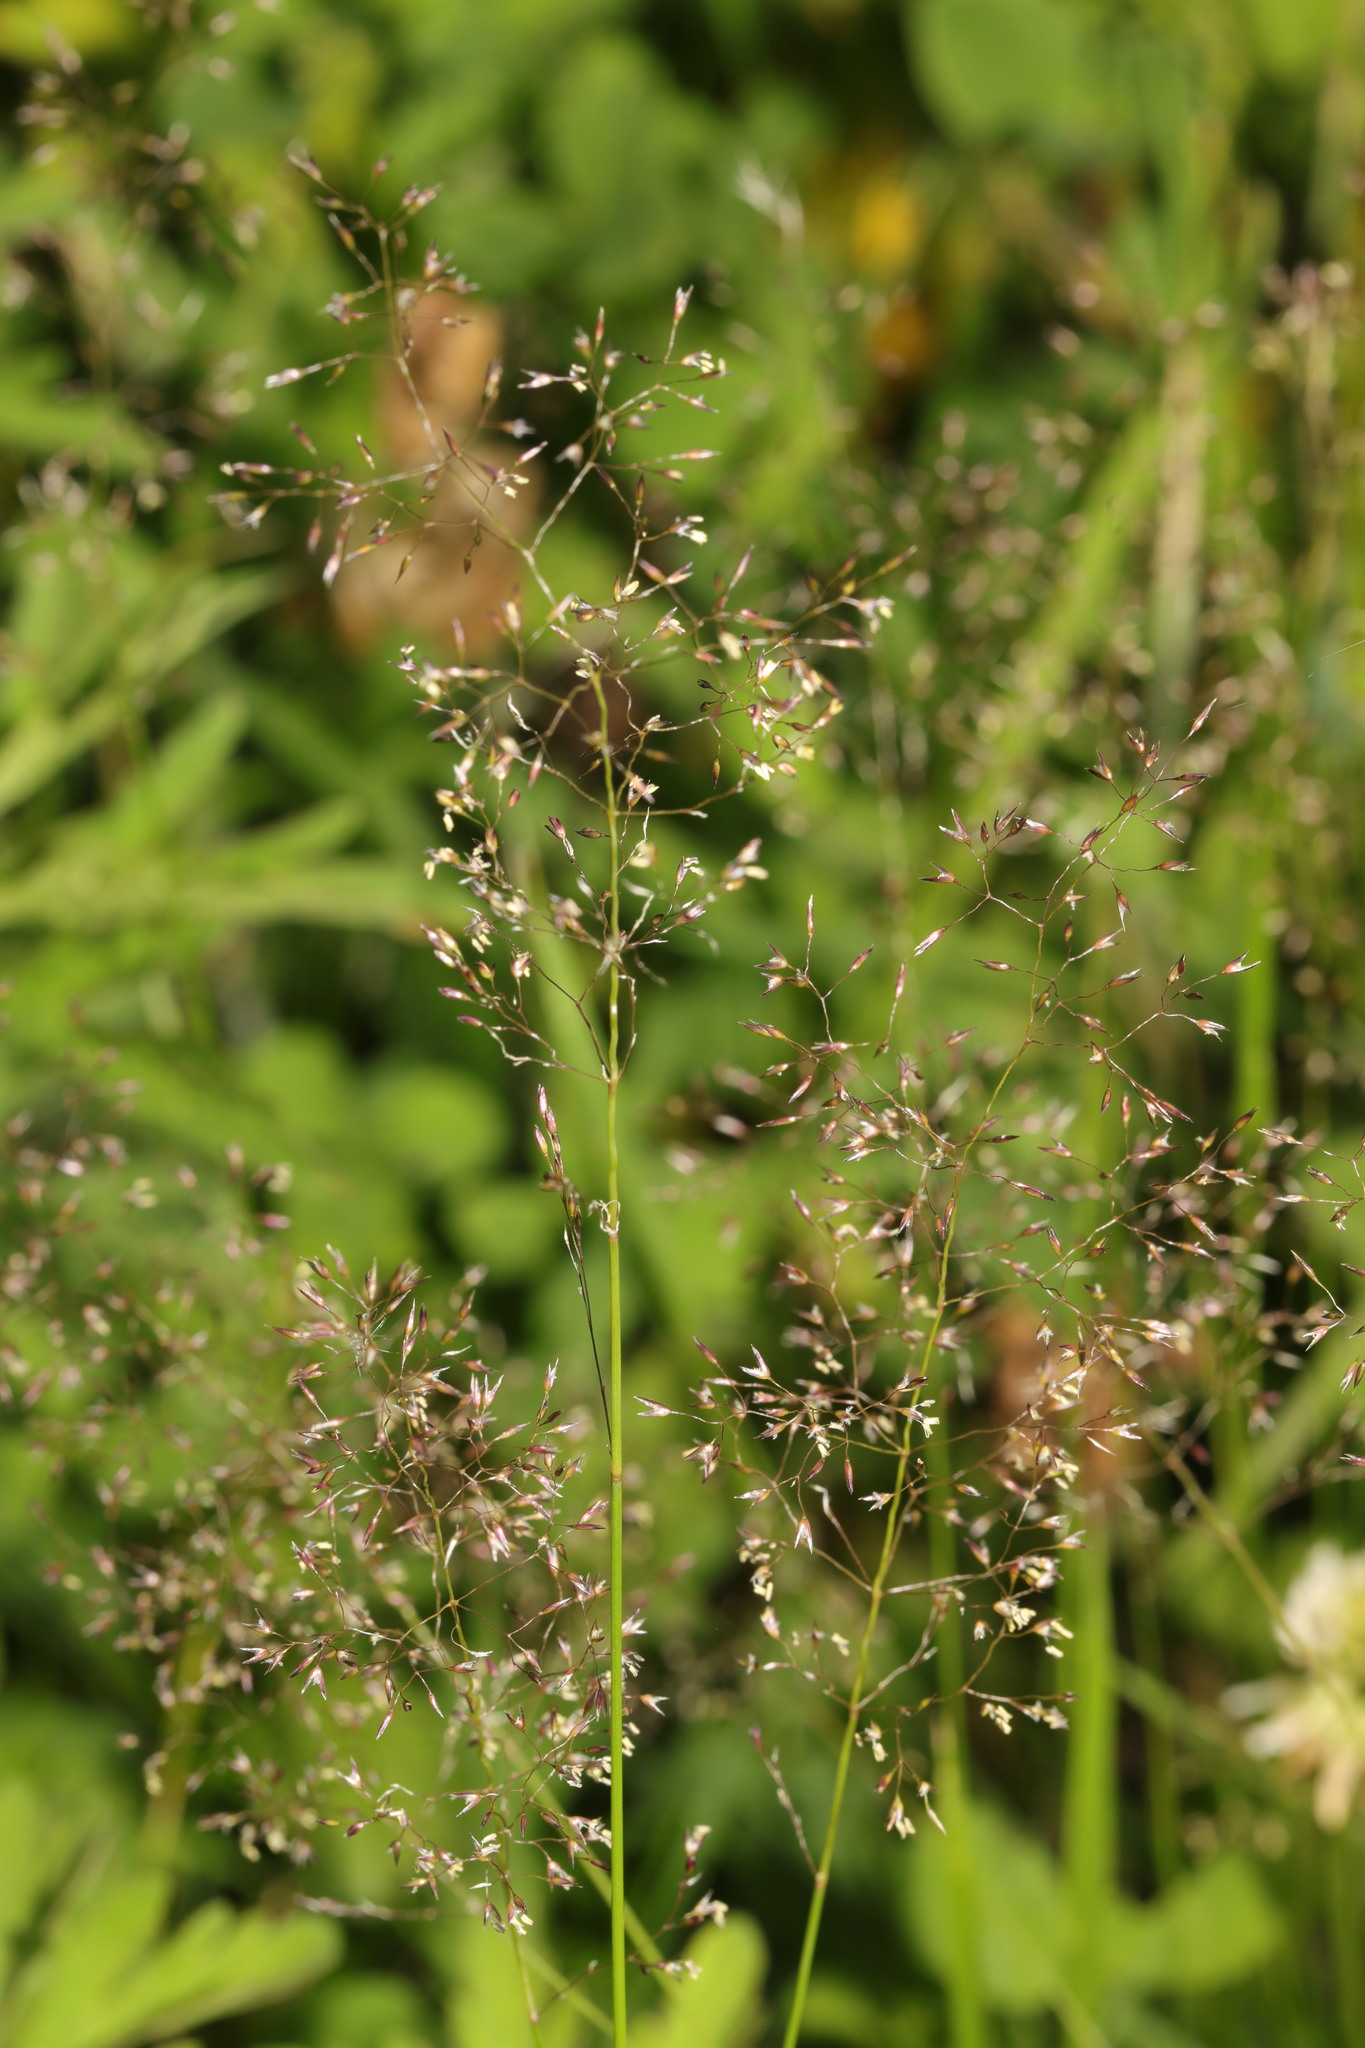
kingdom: Plantae
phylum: Tracheophyta
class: Liliopsida
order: Poales
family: Poaceae
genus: Agrostis
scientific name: Agrostis capillaris
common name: Colonial bentgrass
